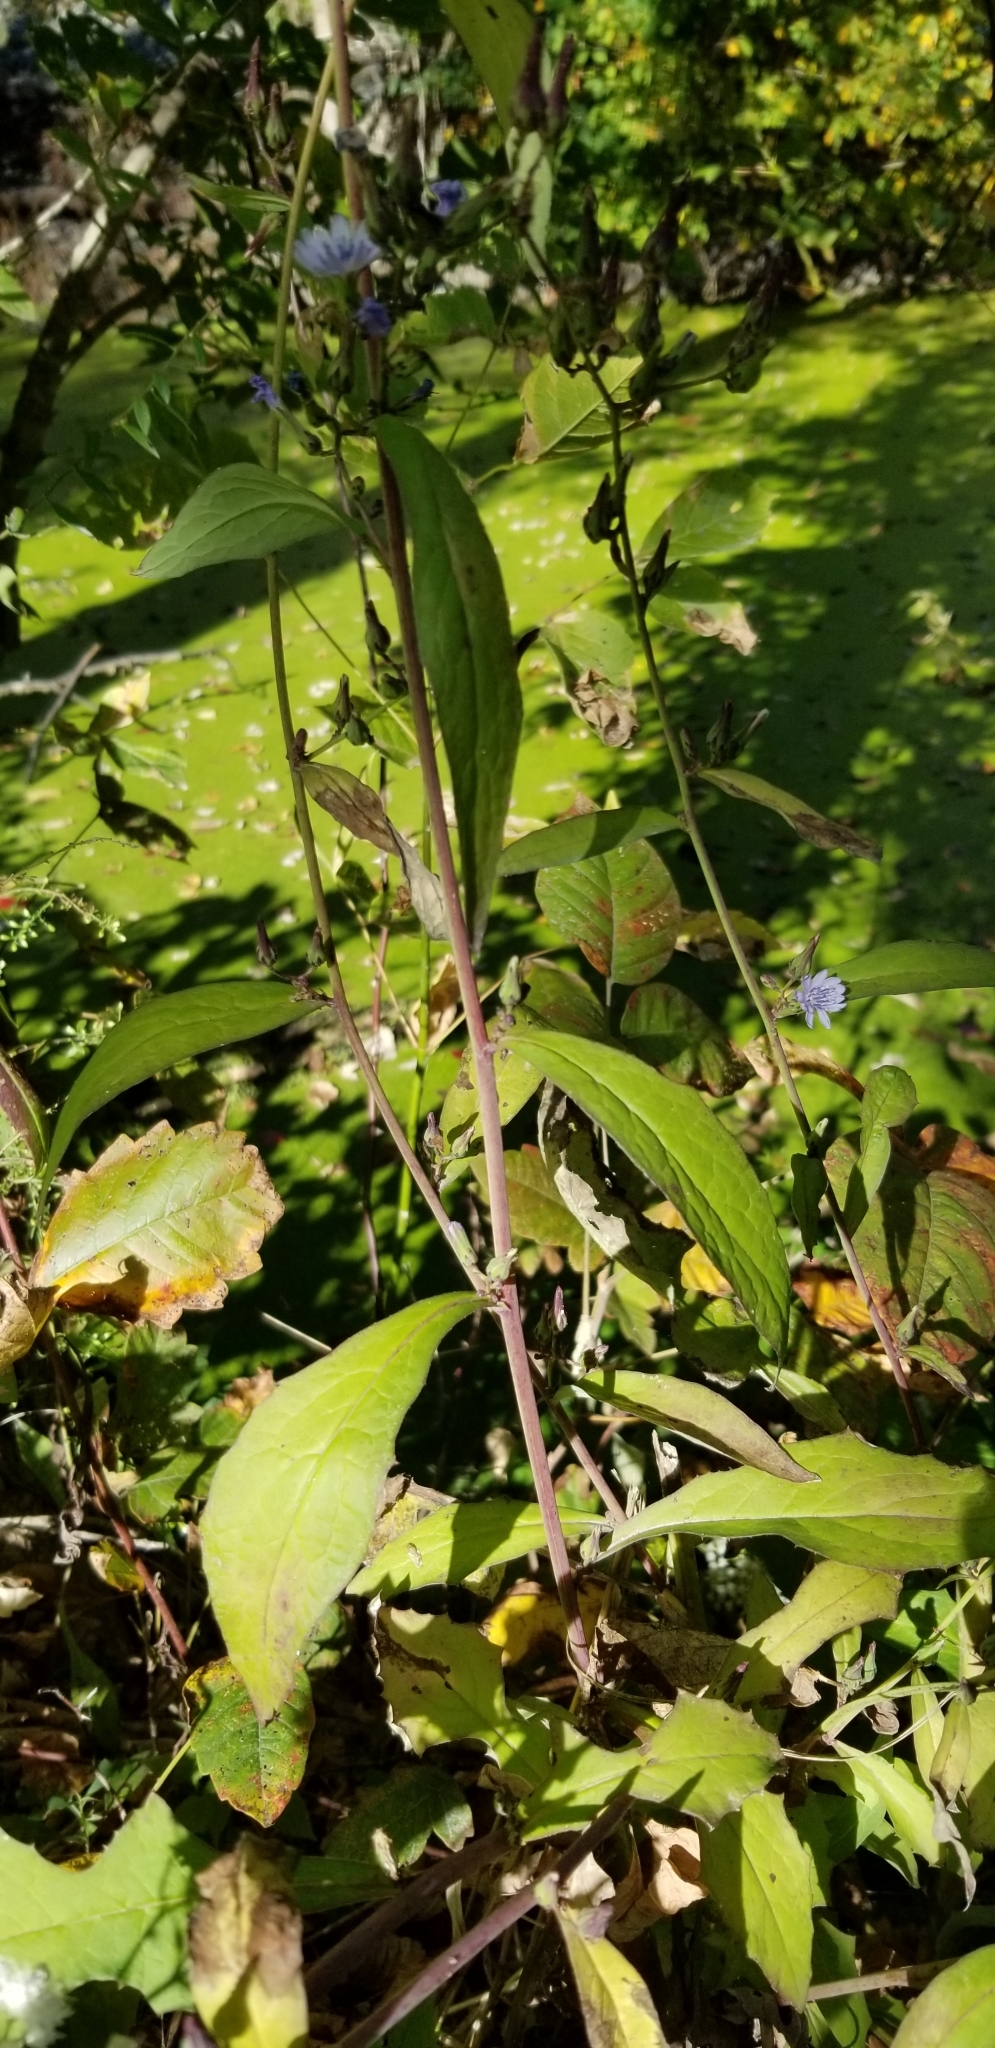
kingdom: Plantae
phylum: Tracheophyta
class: Magnoliopsida
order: Asterales
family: Asteraceae
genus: Lactuca
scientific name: Lactuca floridana
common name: Woodland lettuce
